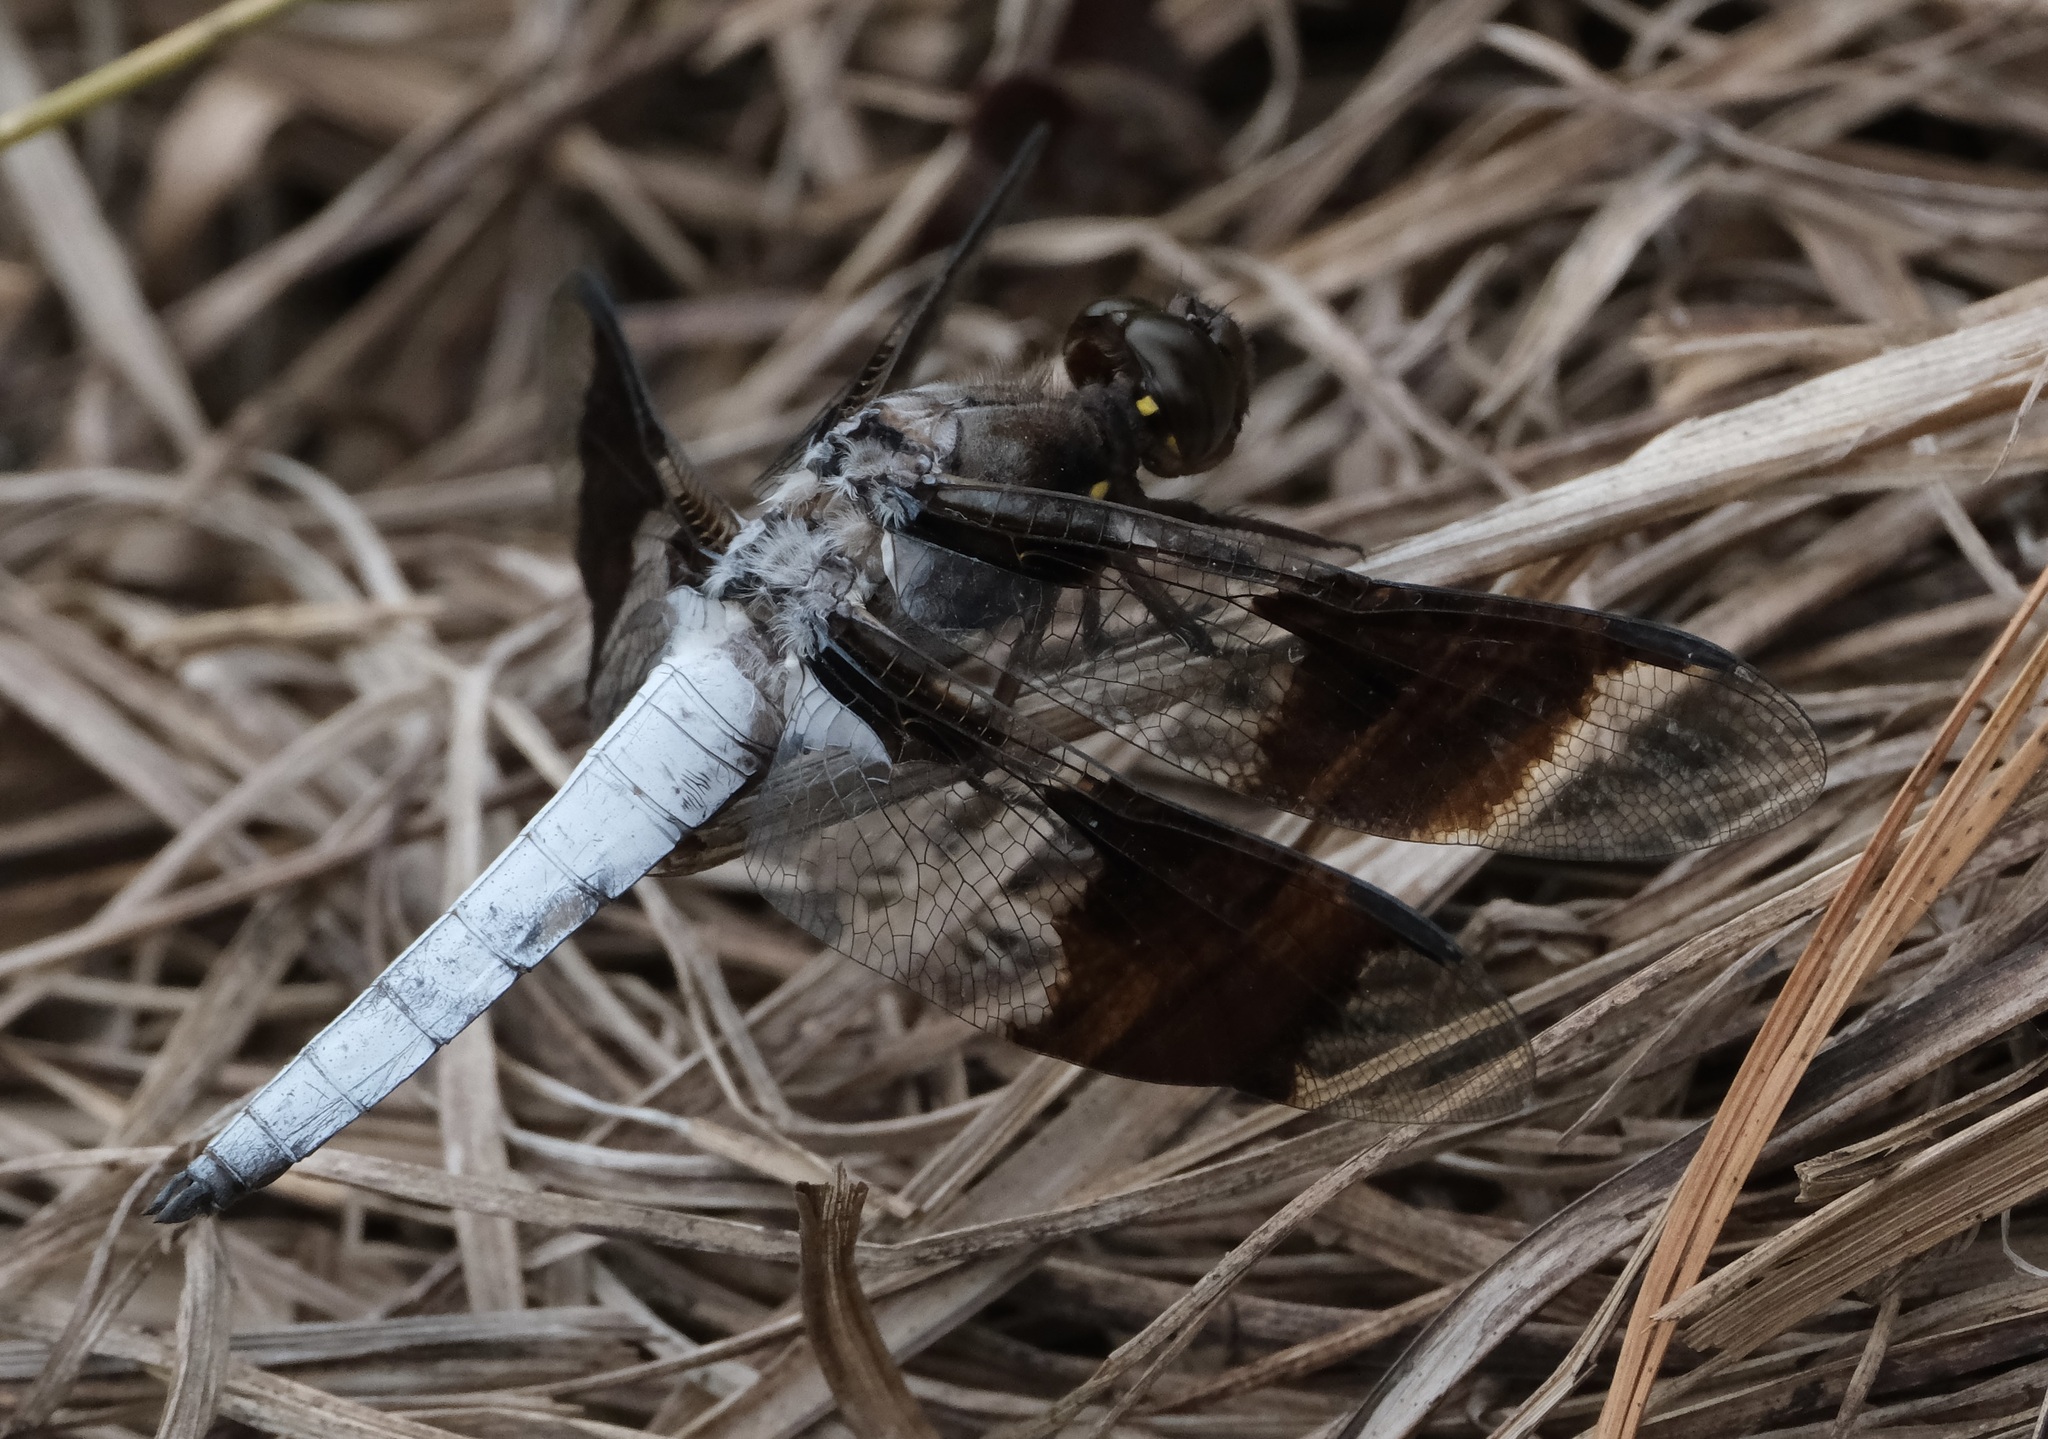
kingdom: Animalia
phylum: Arthropoda
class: Insecta
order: Odonata
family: Libellulidae
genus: Plathemis
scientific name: Plathemis lydia
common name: Common whitetail
